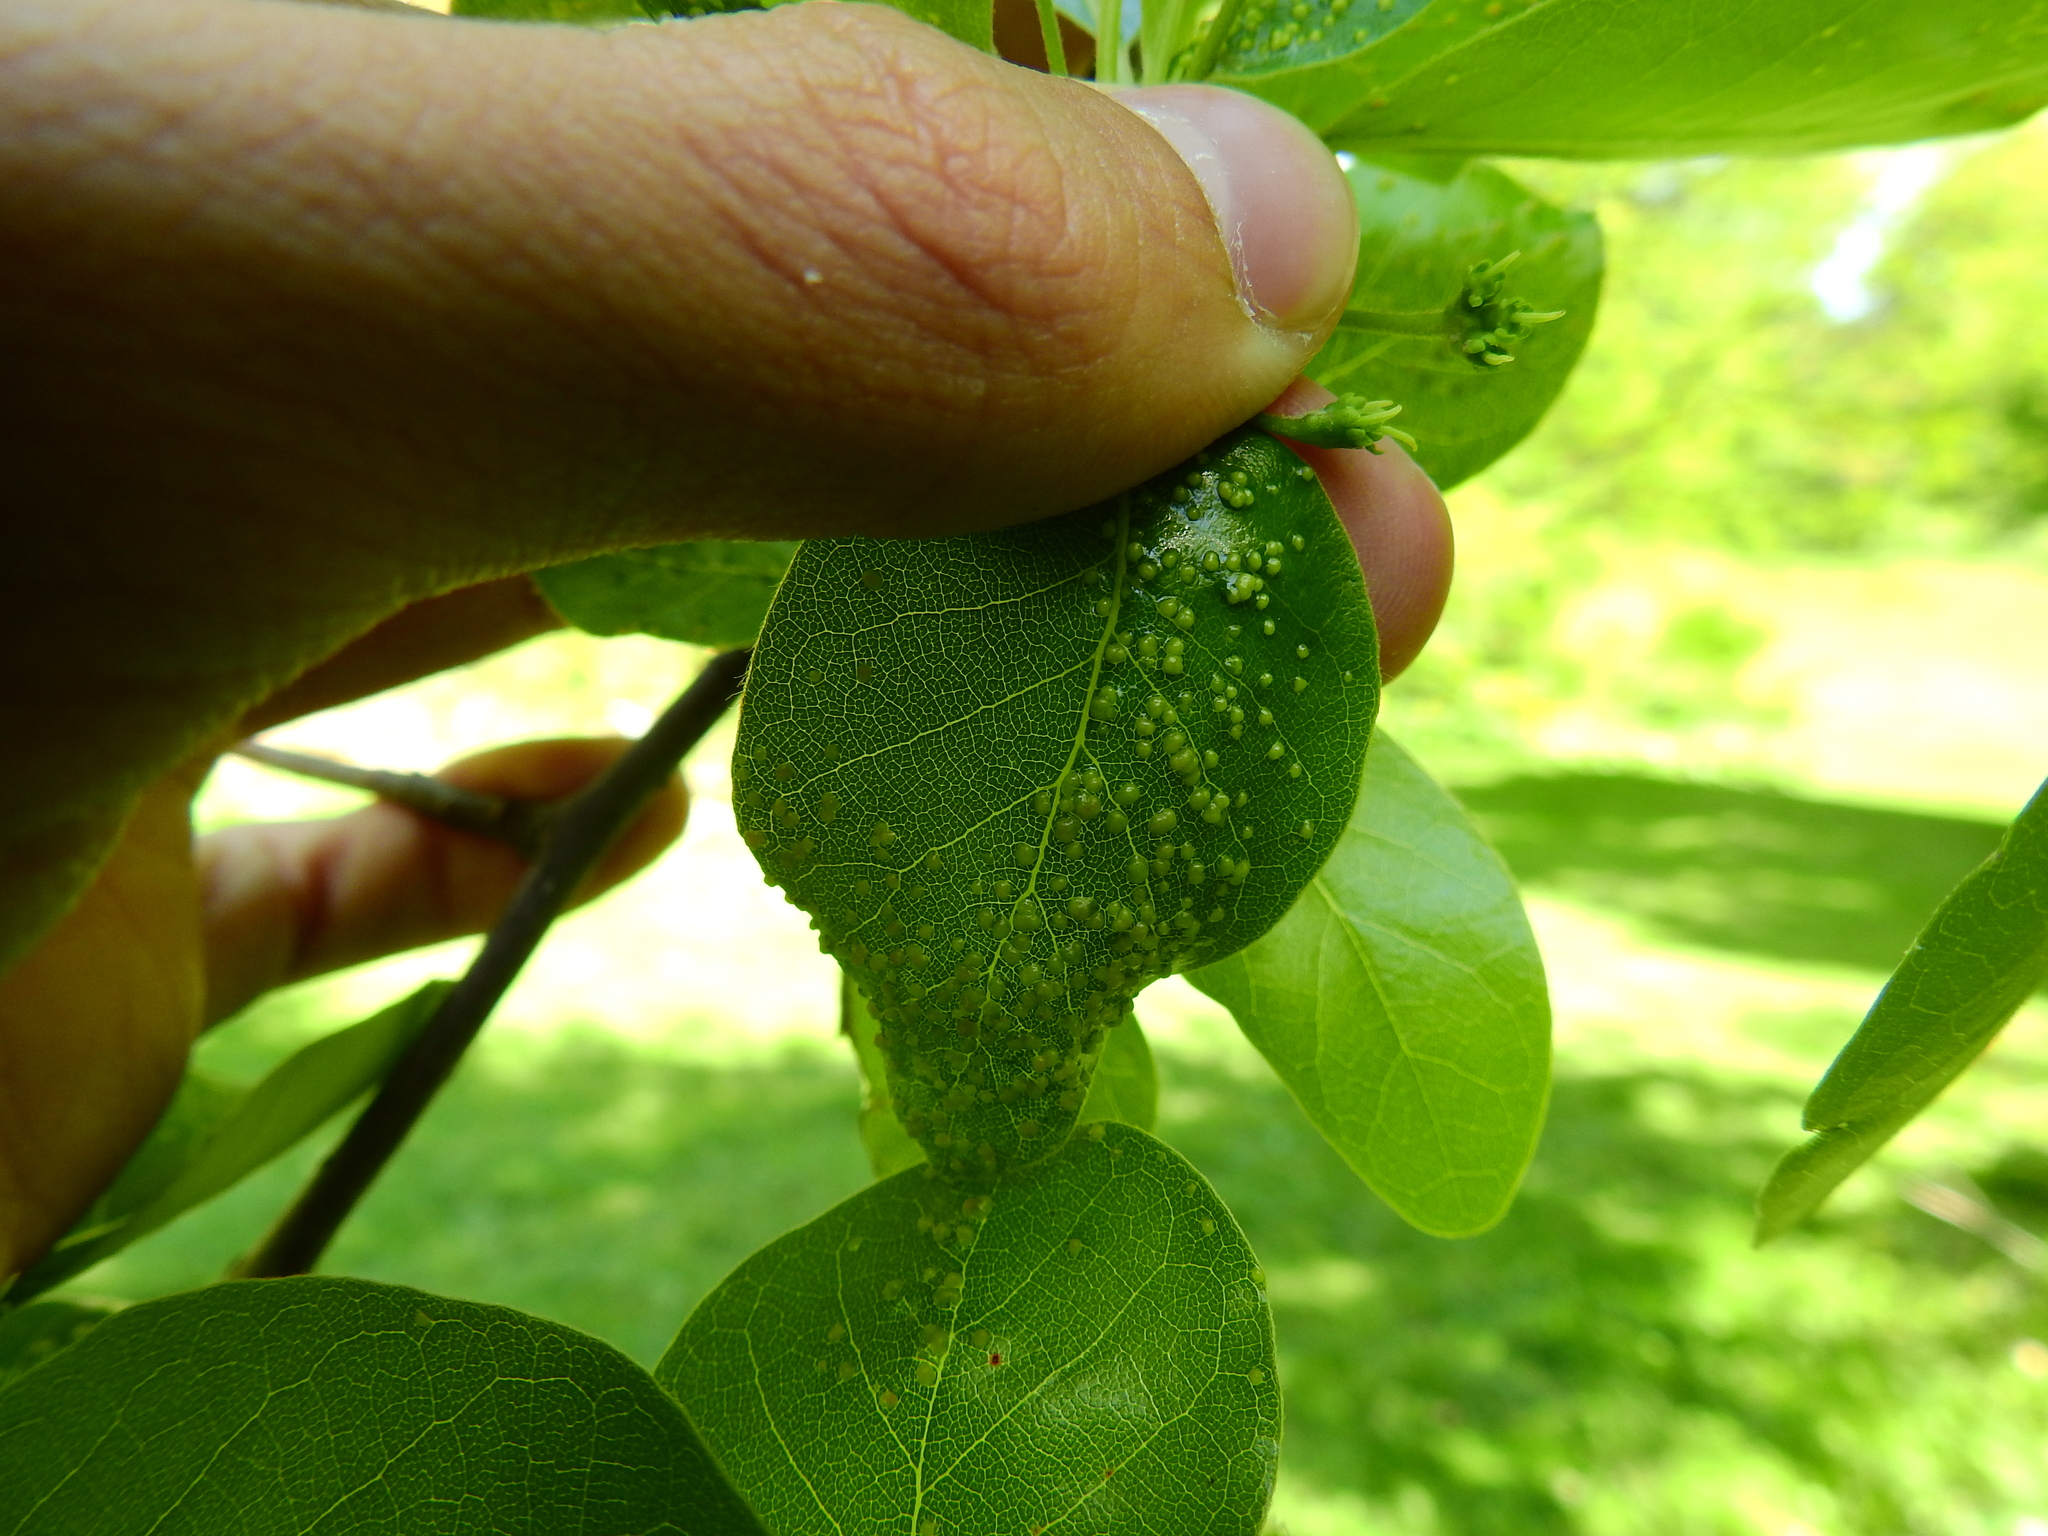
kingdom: Animalia
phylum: Arthropoda
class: Arachnida
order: Trombidiformes
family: Eriophyidae
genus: Aceria
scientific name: Aceria
